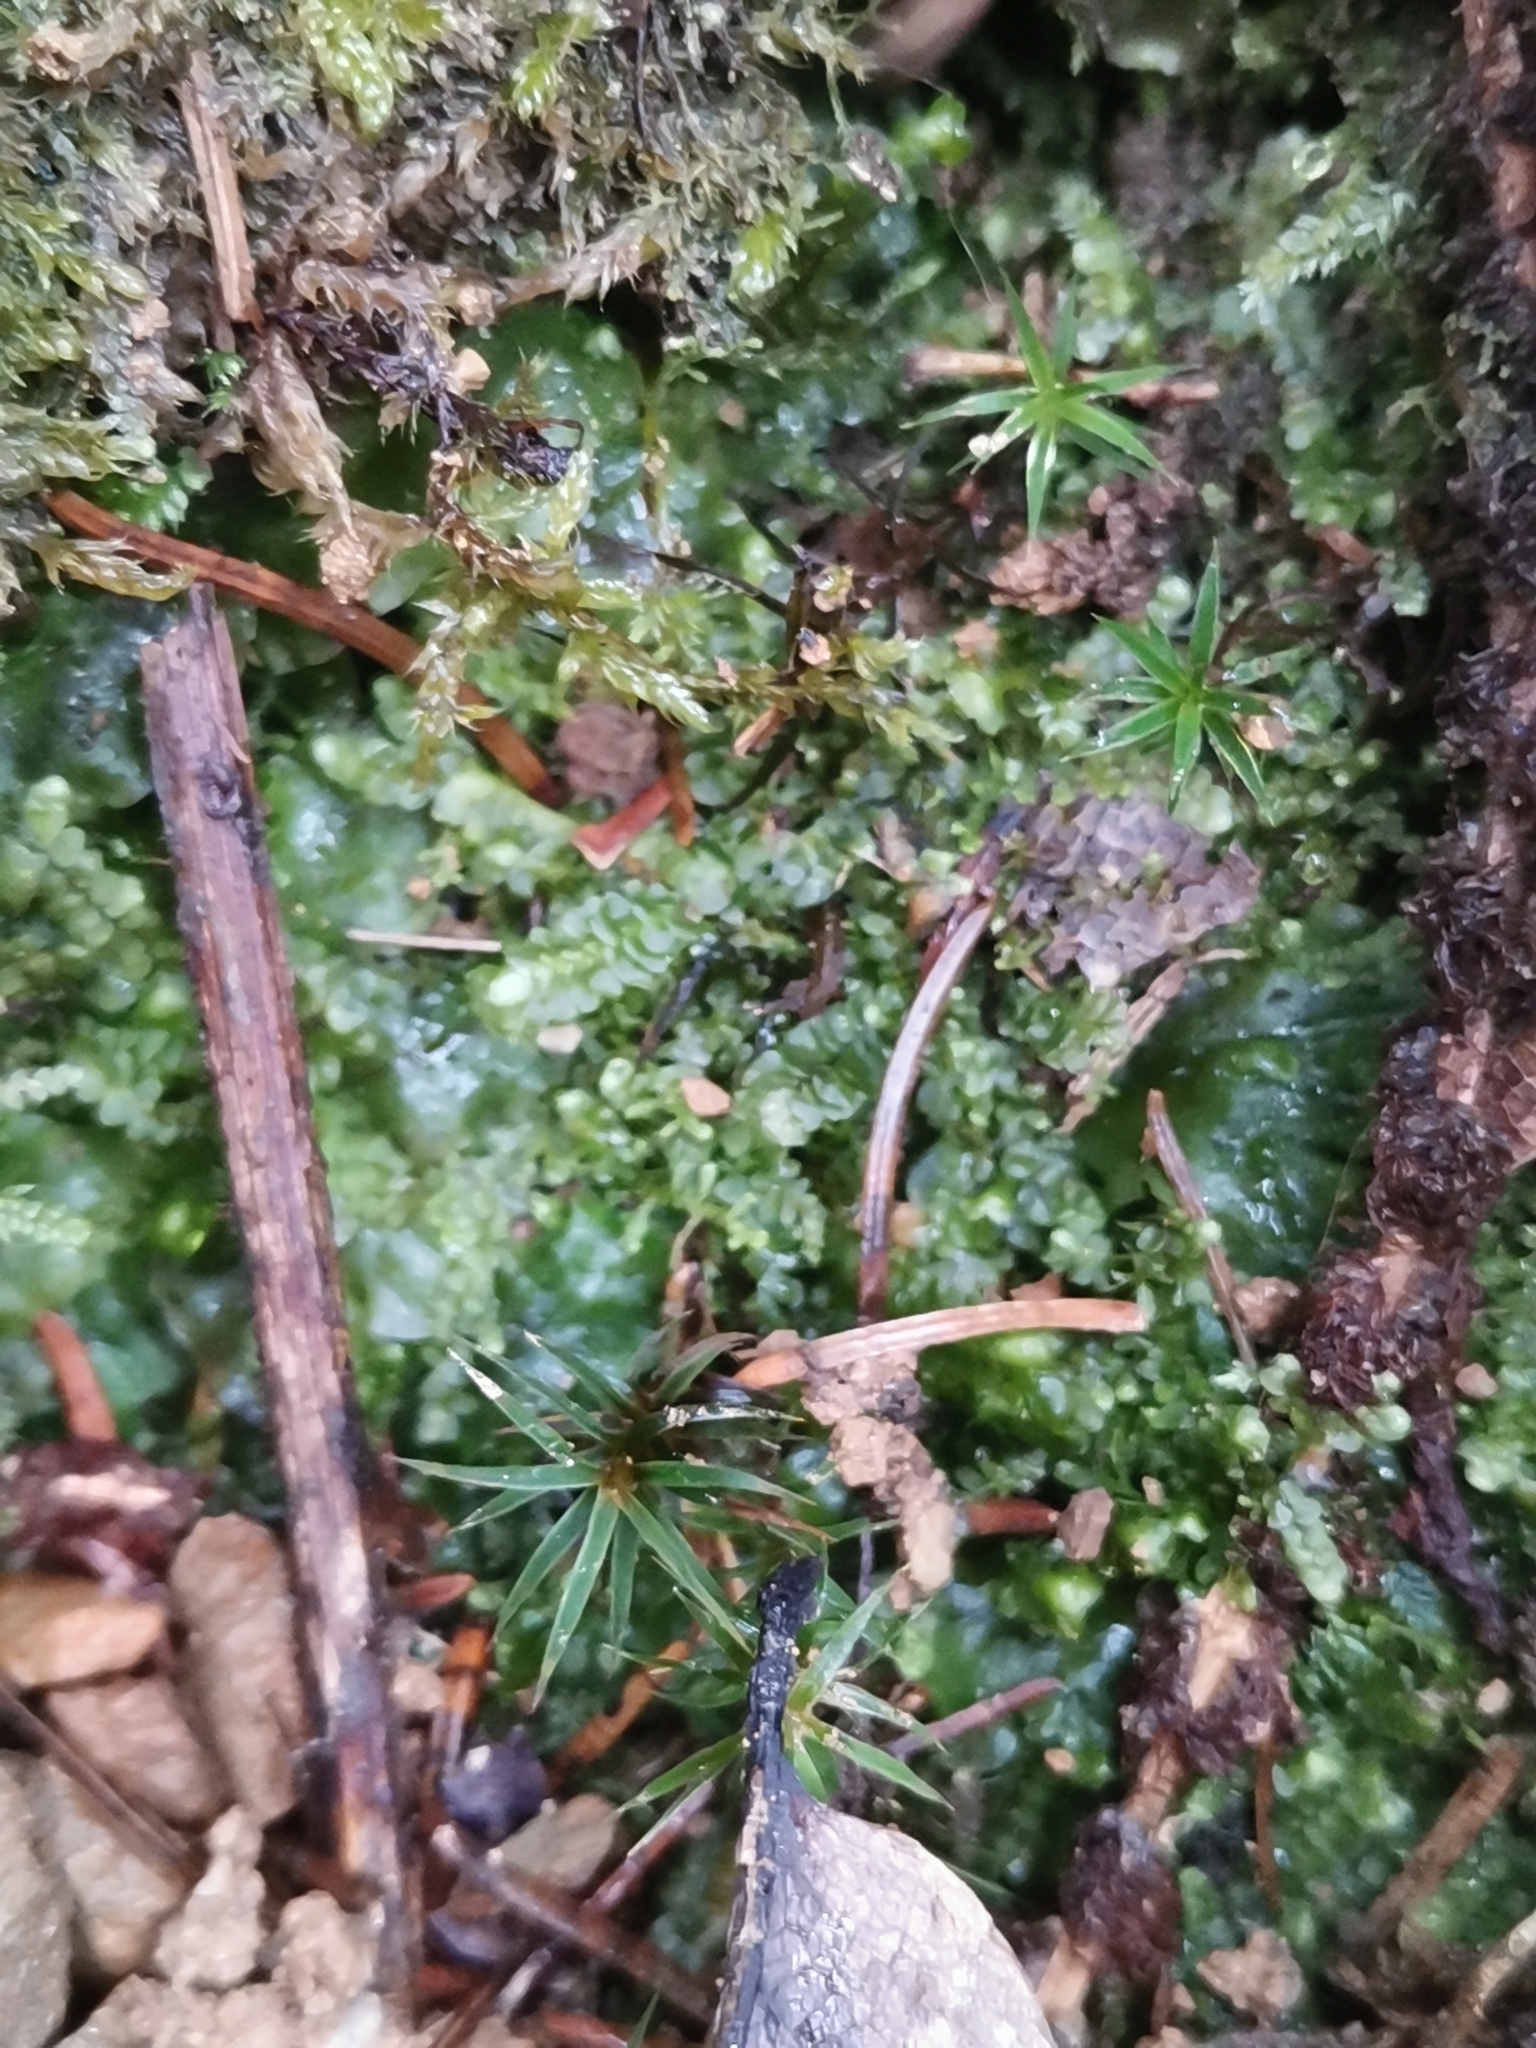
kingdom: Plantae
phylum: Marchantiophyta
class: Jungermanniopsida
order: Jungermanniales
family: Lepidoziaceae
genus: Bazzania
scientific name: Bazzania trilobata
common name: Three-lobed whipwort
